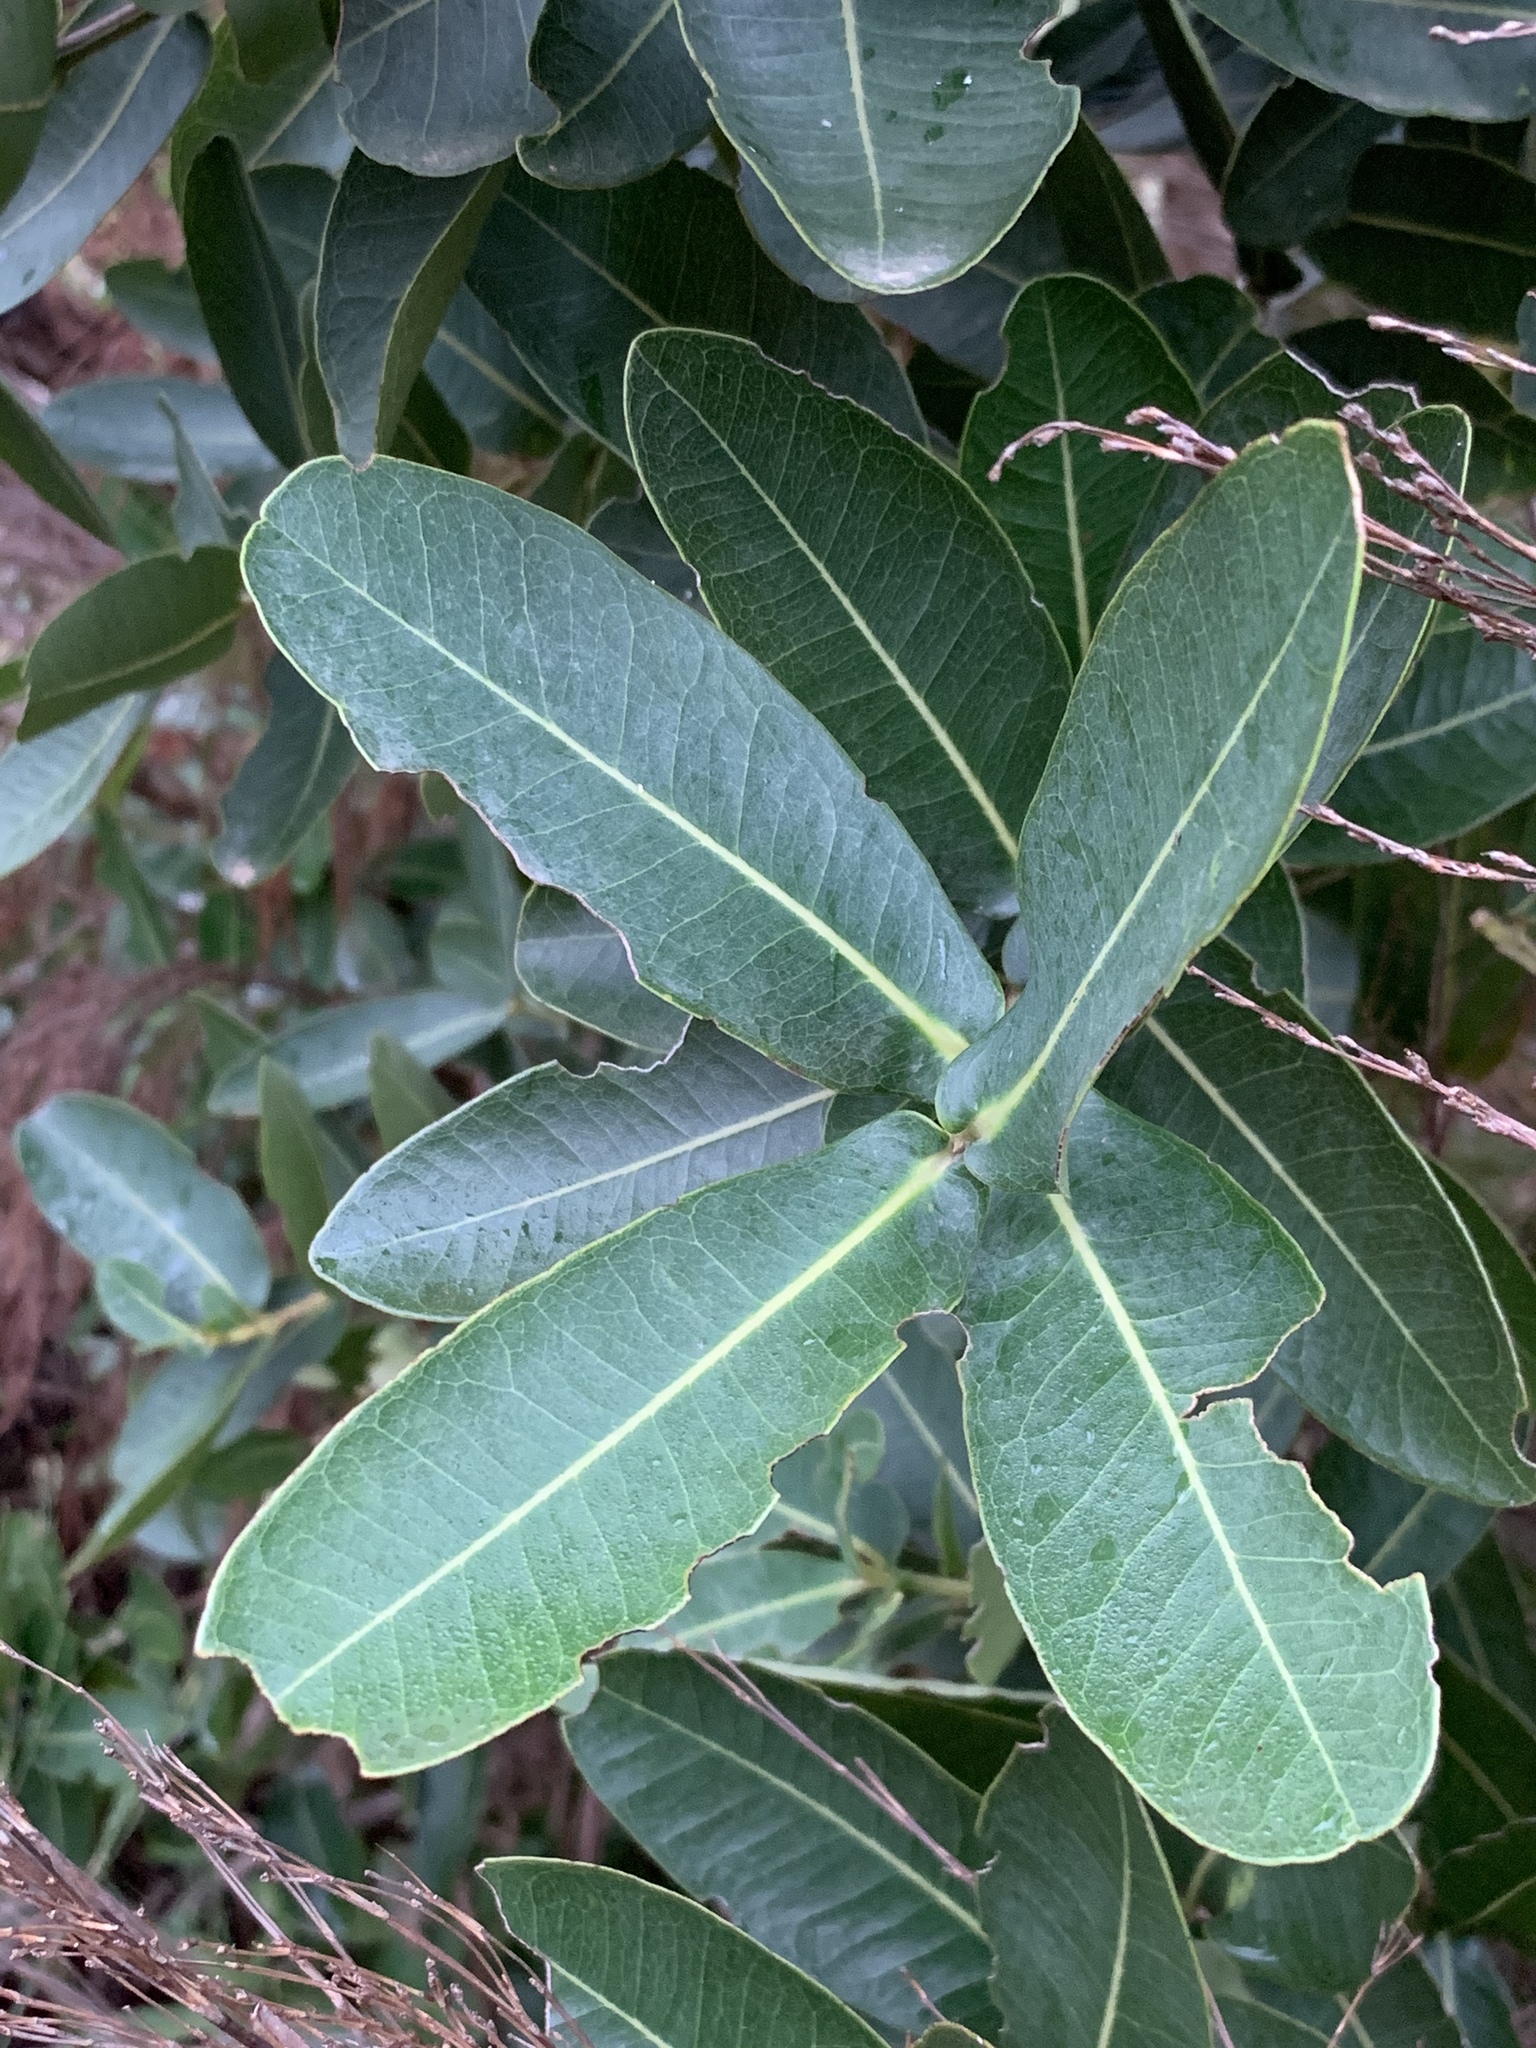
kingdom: Plantae
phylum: Tracheophyta
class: Magnoliopsida
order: Myrtales
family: Myrtaceae
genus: Syzygium
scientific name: Syzygium cordatum
